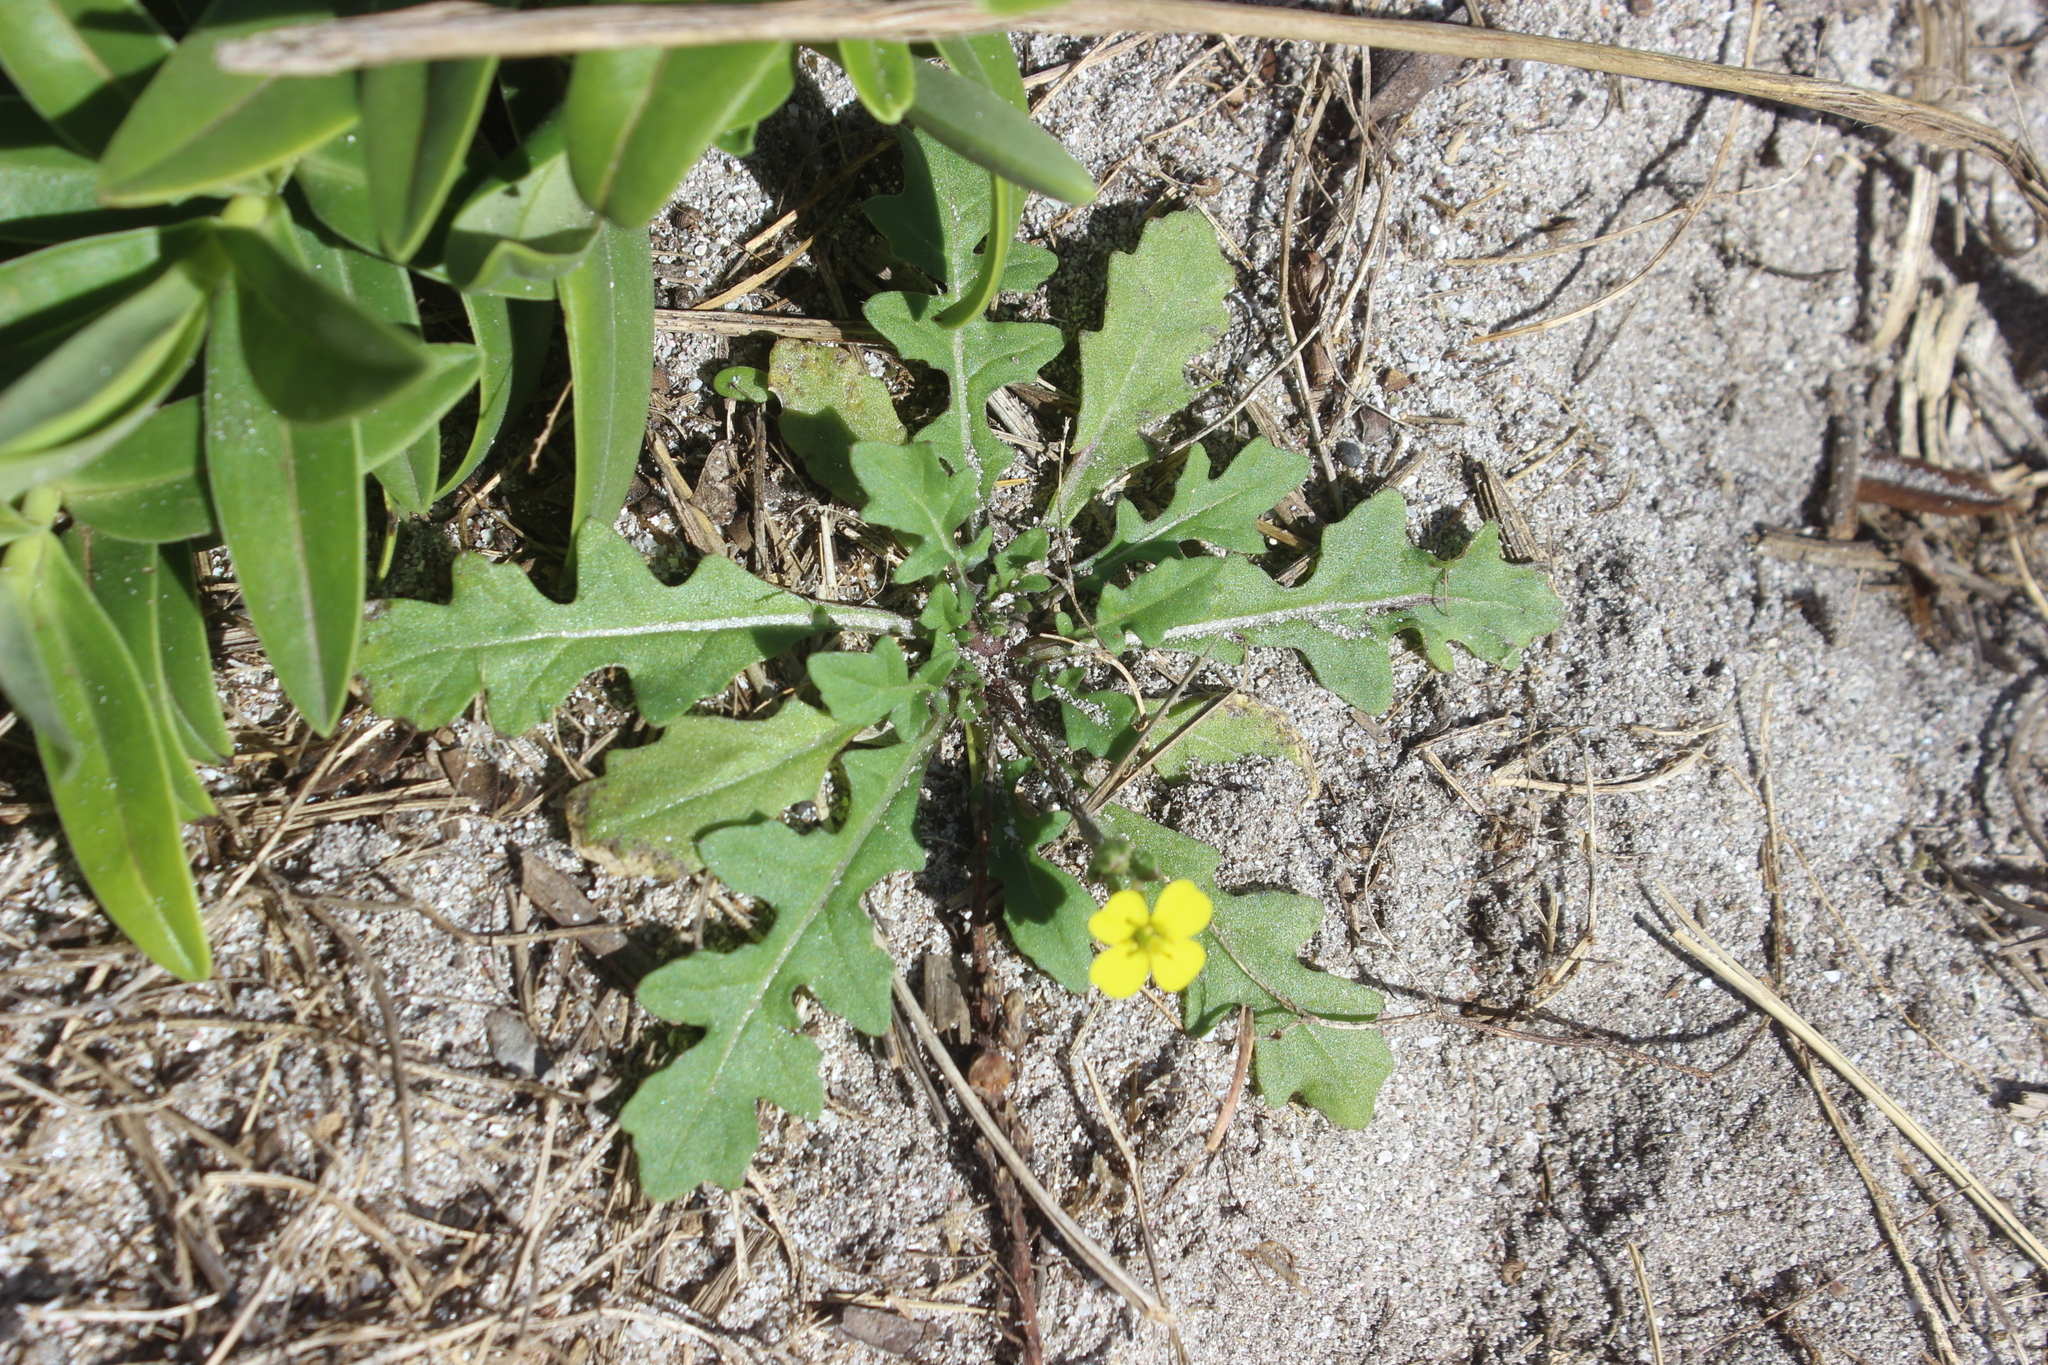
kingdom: Plantae
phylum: Tracheophyta
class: Magnoliopsida
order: Brassicales
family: Brassicaceae
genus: Diplotaxis
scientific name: Diplotaxis muralis
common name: Annual wall-rocket
